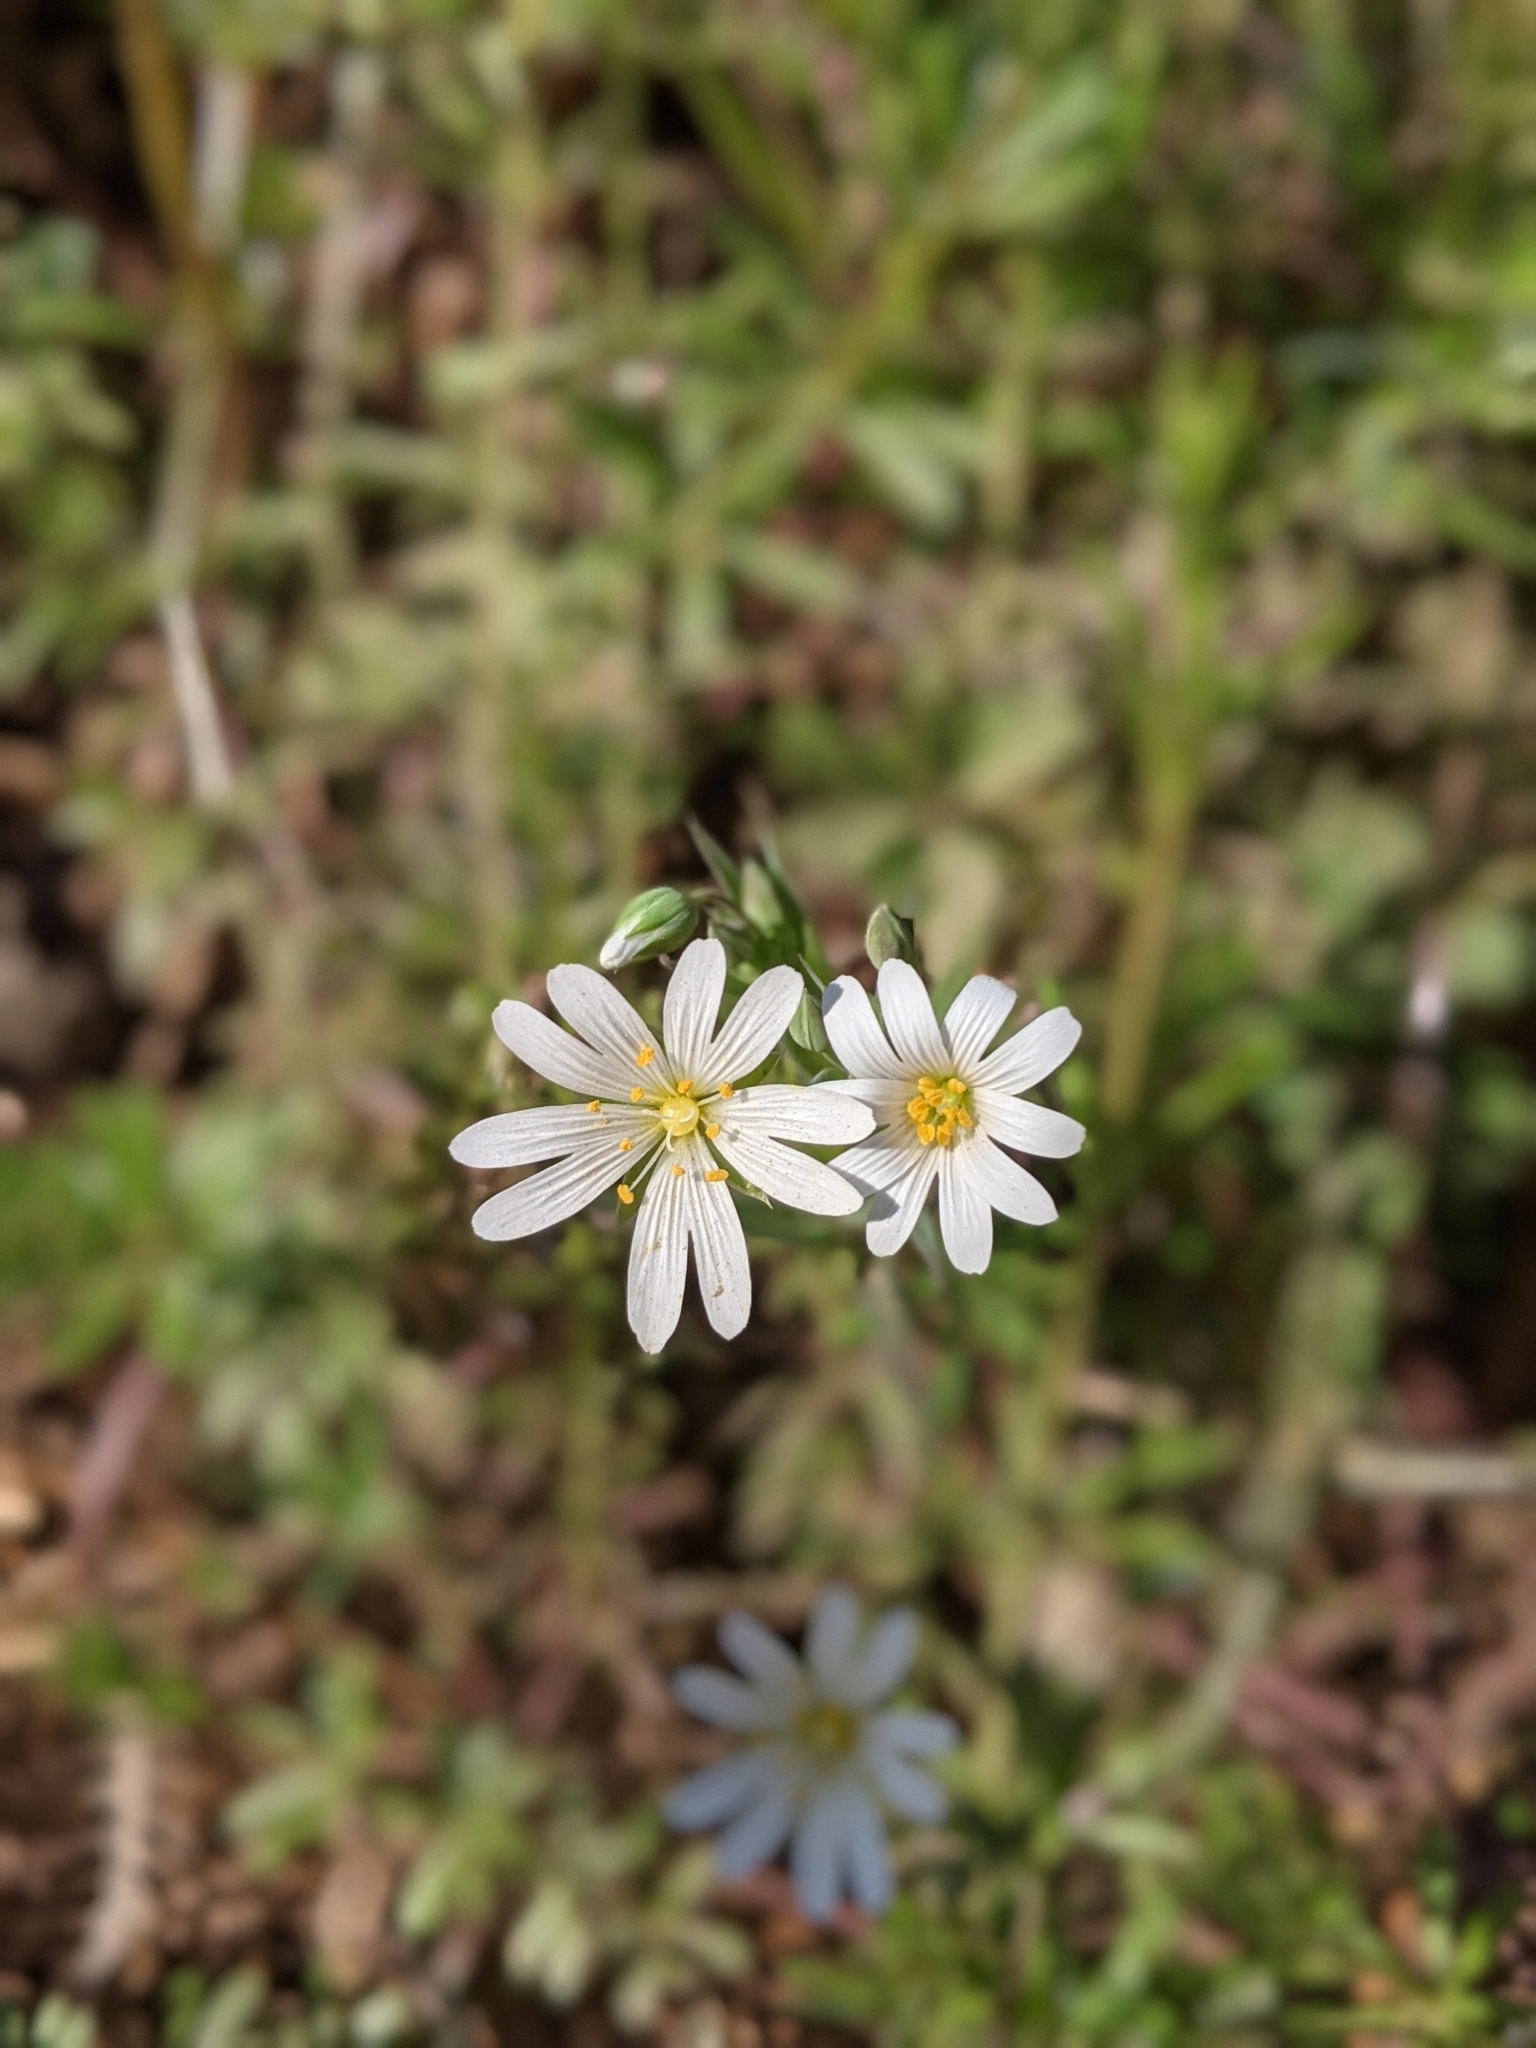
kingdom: Plantae
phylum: Tracheophyta
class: Magnoliopsida
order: Caryophyllales
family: Caryophyllaceae
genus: Rabelera
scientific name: Rabelera holostea
